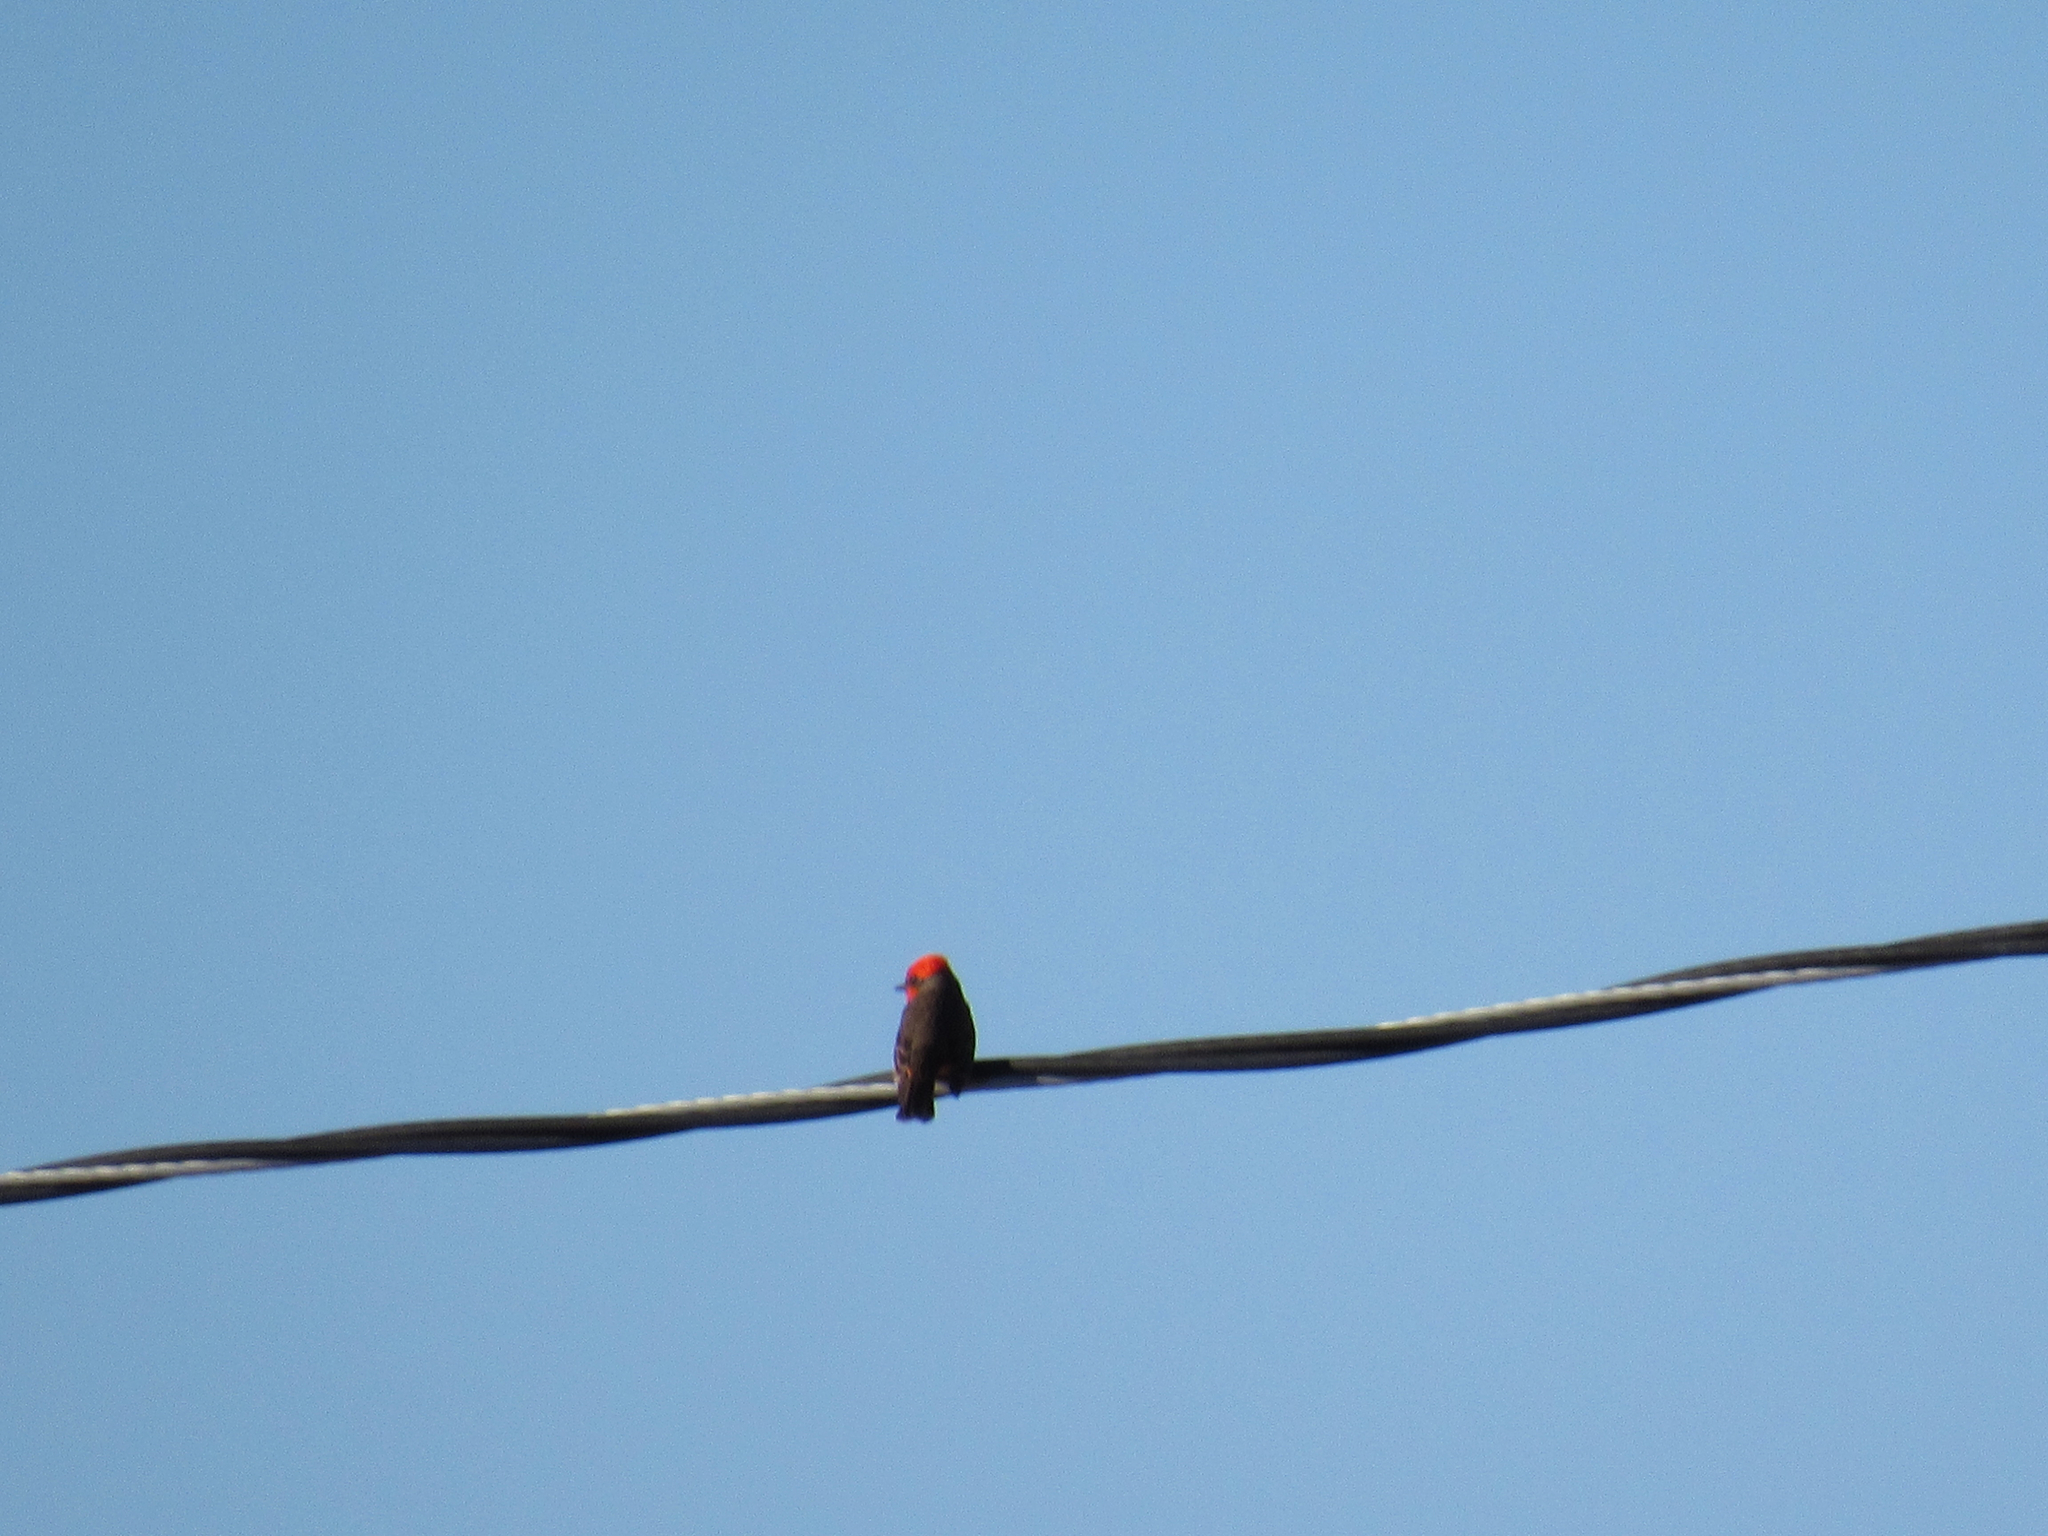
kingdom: Animalia
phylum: Chordata
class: Aves
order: Passeriformes
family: Tyrannidae
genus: Pyrocephalus
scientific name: Pyrocephalus rubinus
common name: Vermilion flycatcher
